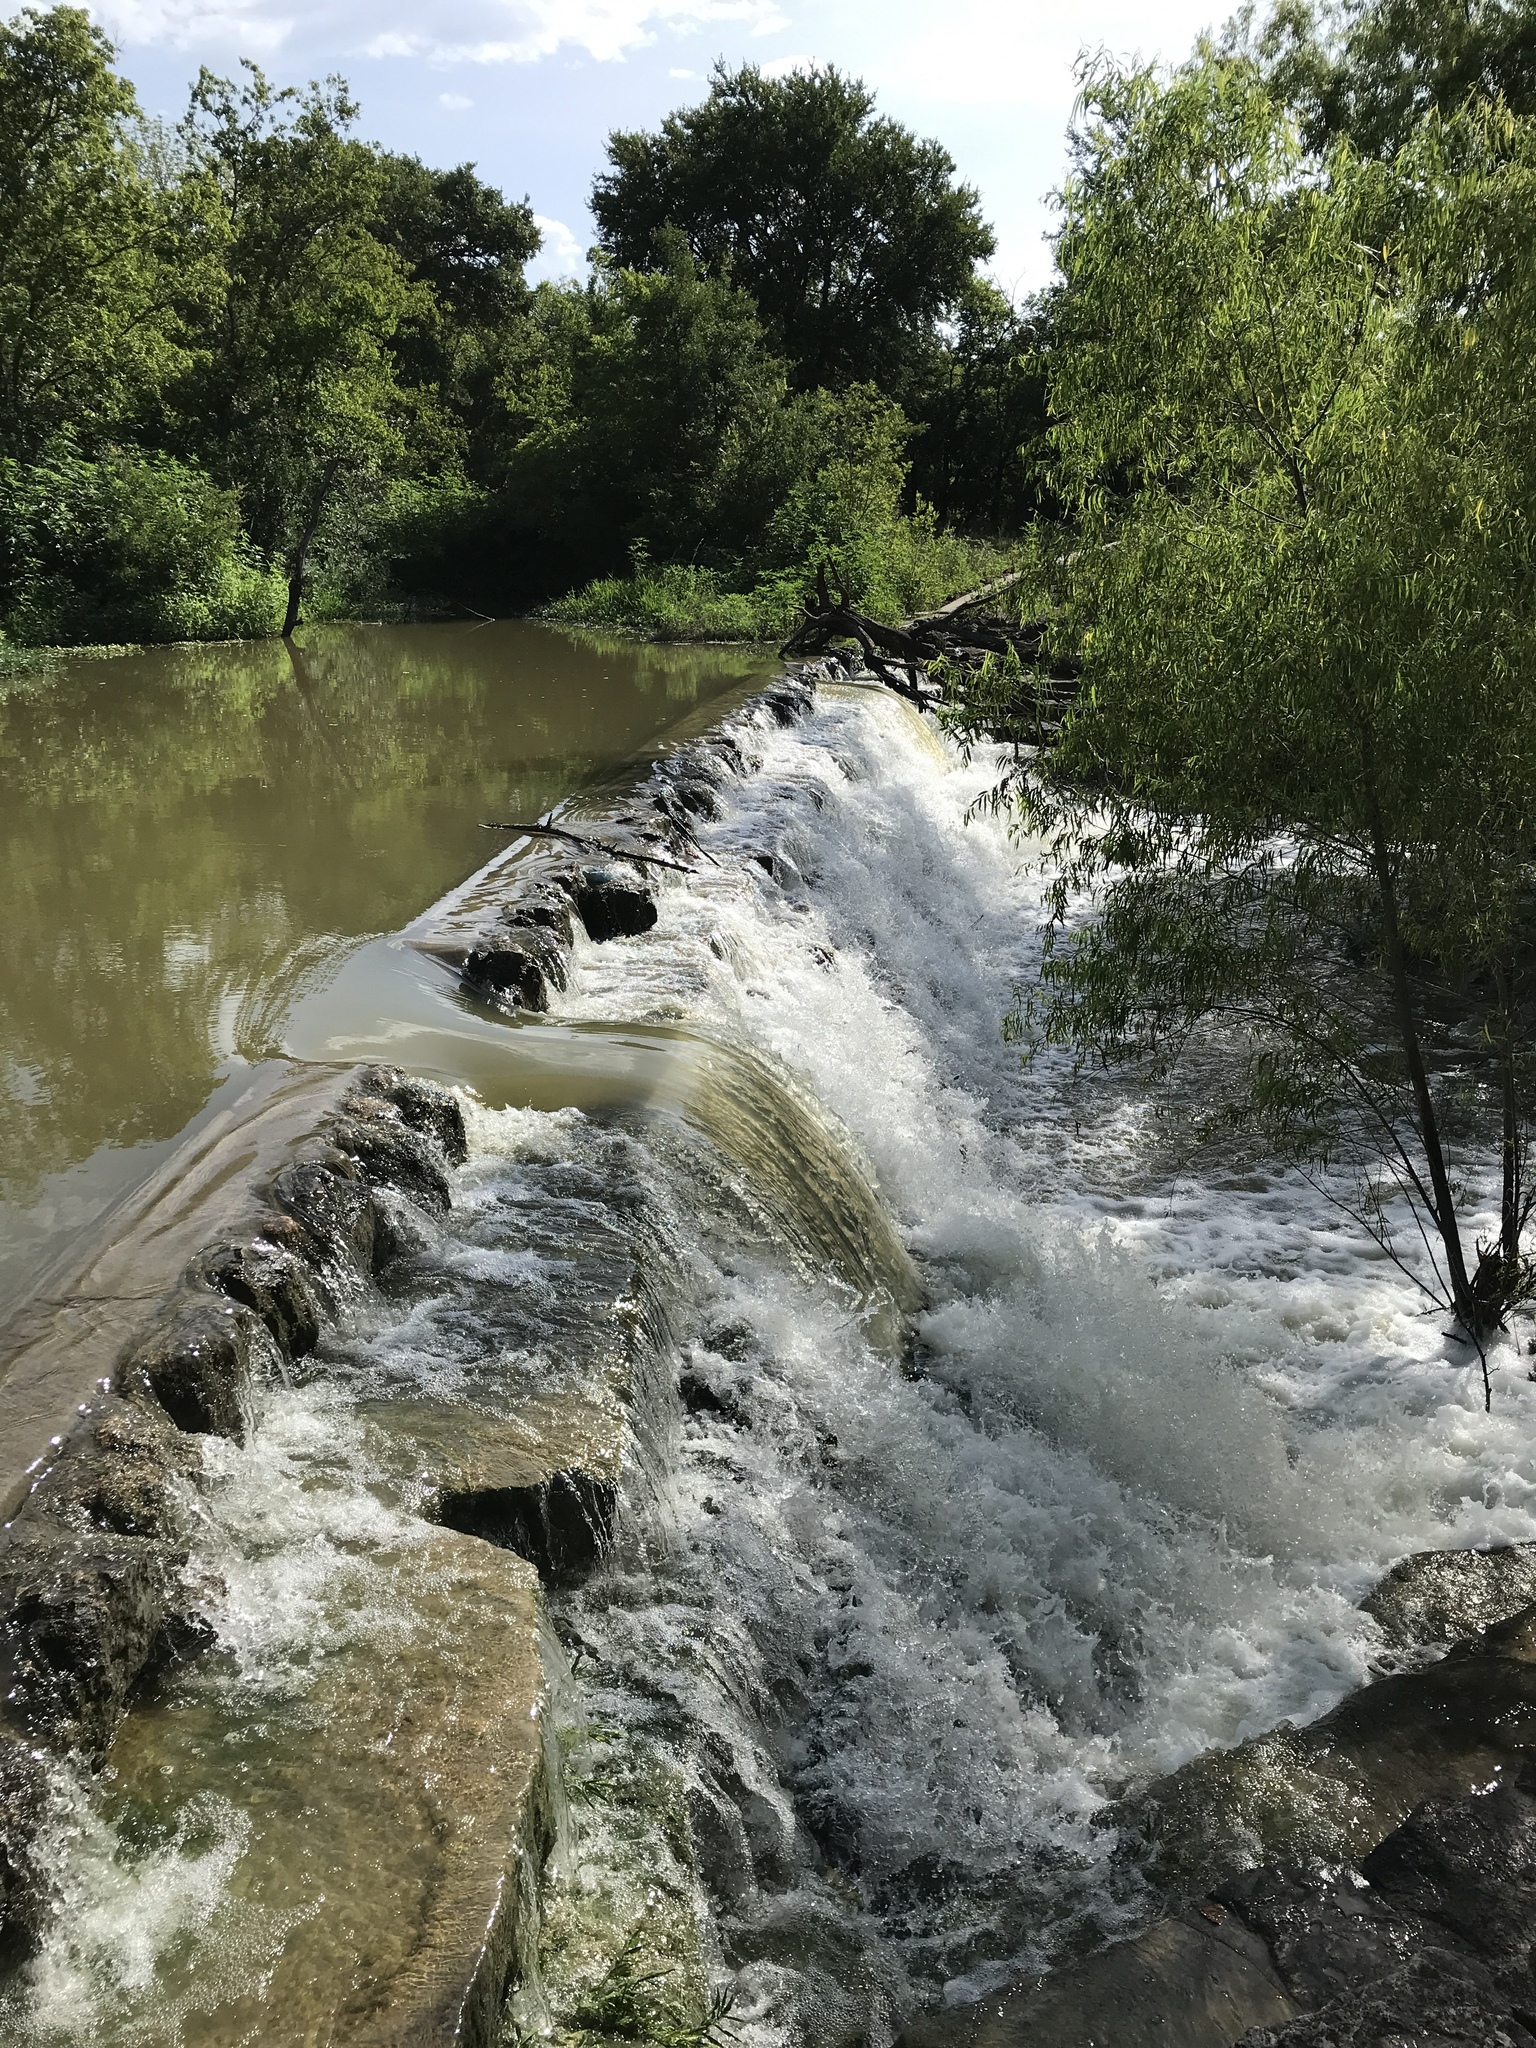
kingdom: Plantae
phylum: Tracheophyta
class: Magnoliopsida
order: Malpighiales
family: Salicaceae
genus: Salix
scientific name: Salix nigra
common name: Black willow
